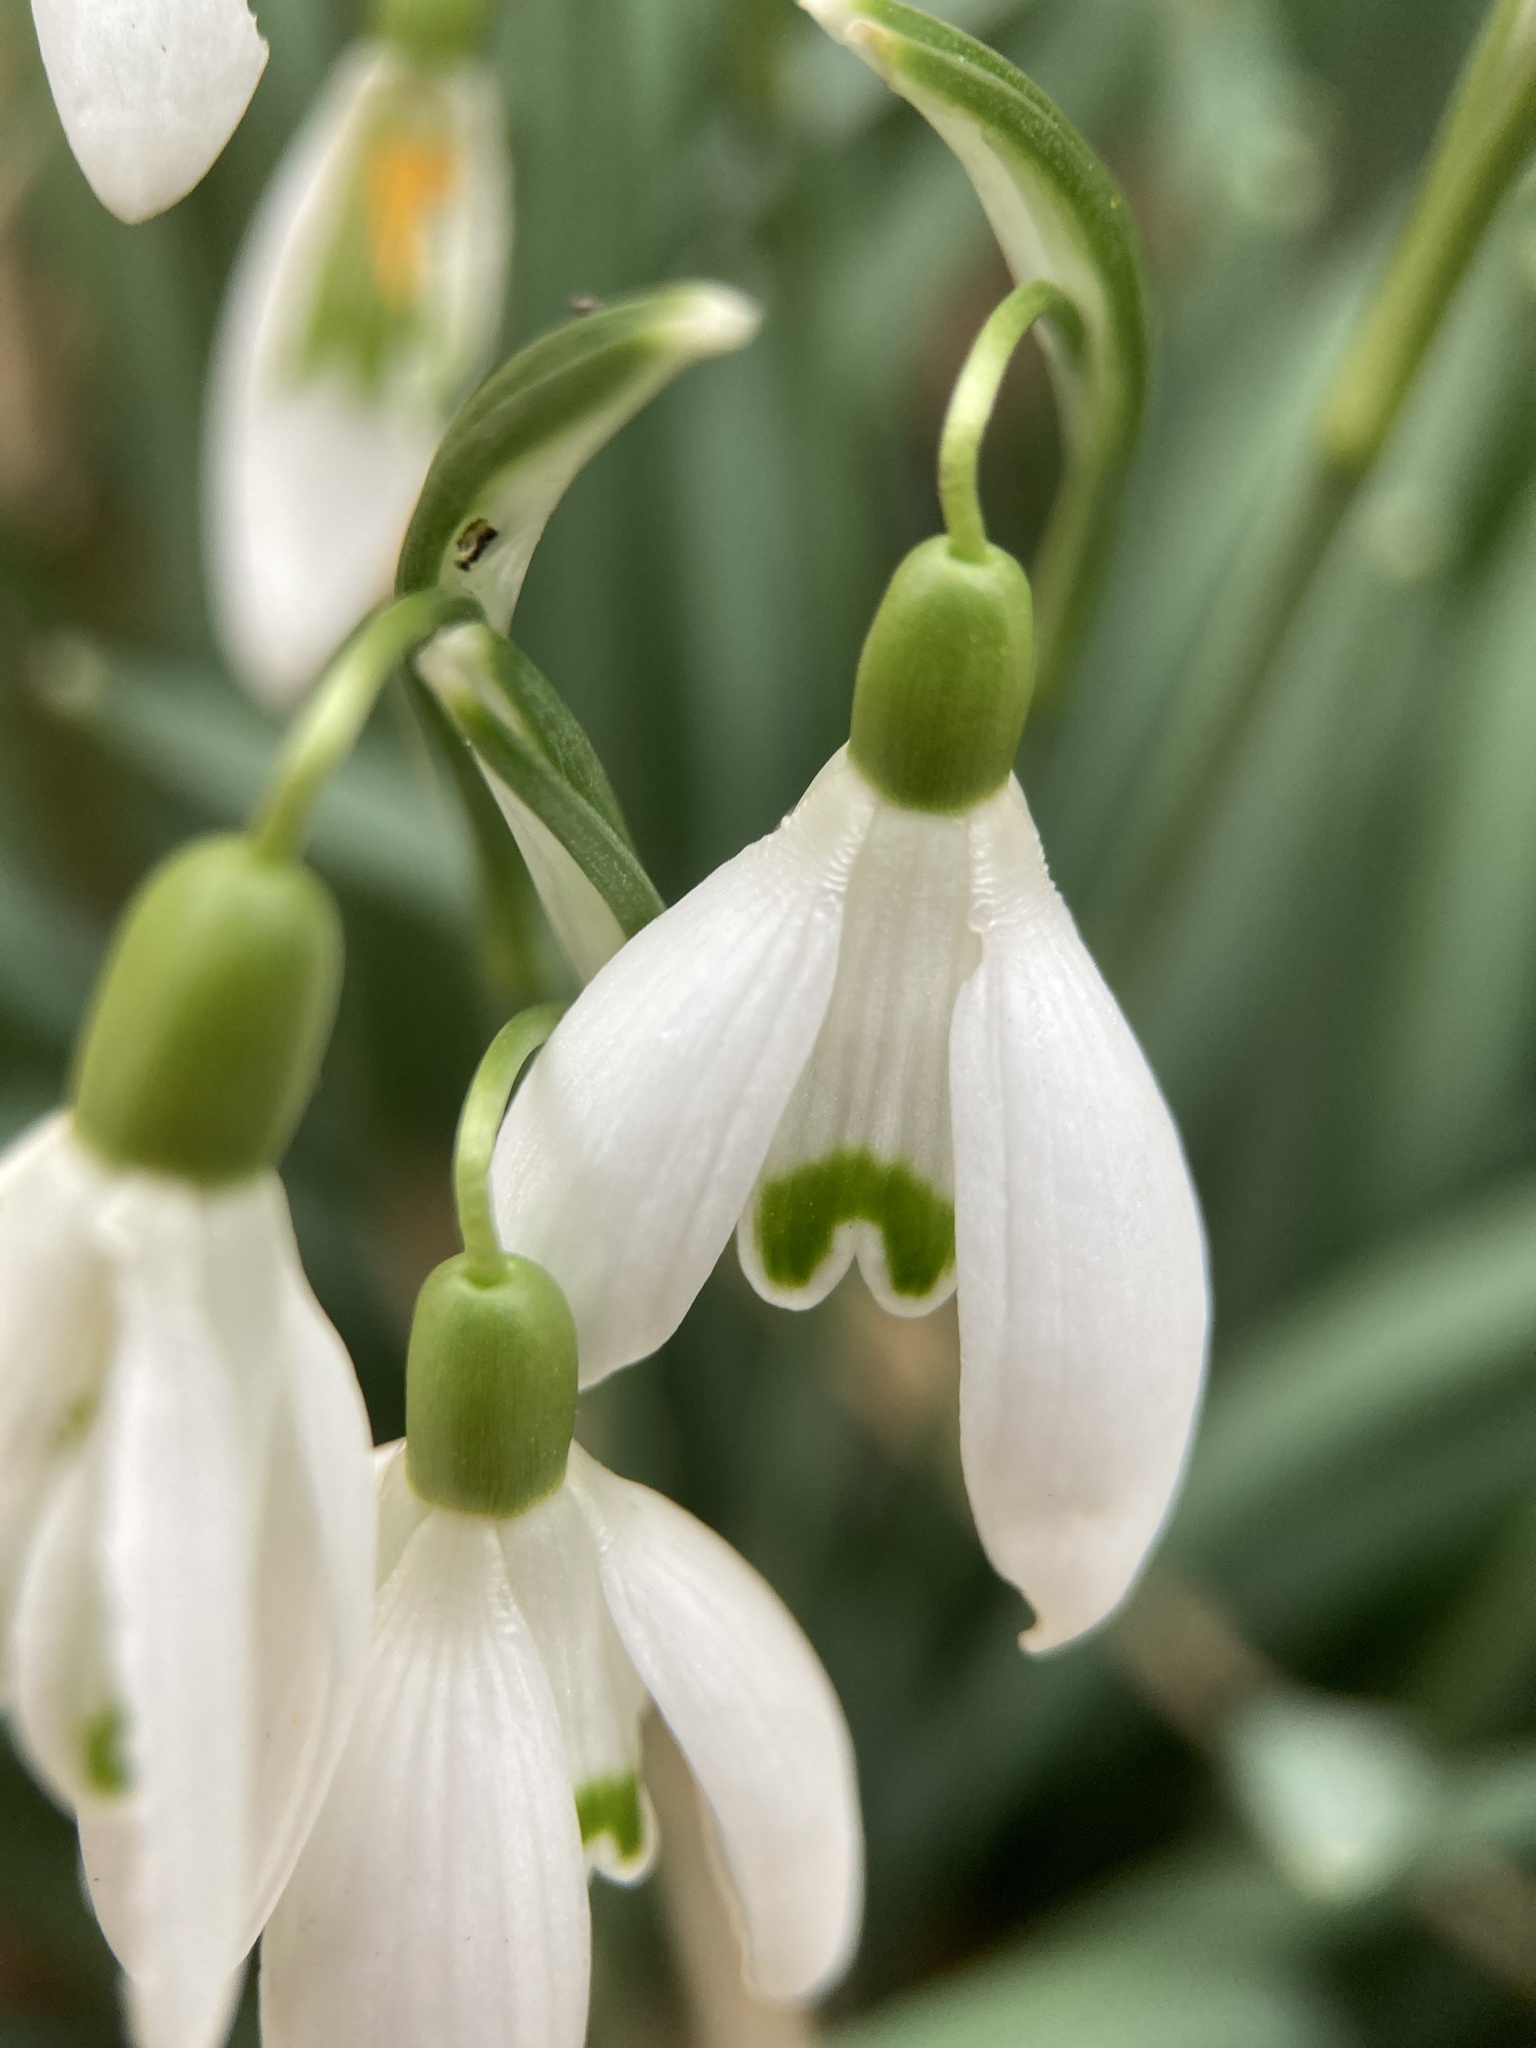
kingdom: Plantae
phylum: Tracheophyta
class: Liliopsida
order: Asparagales
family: Amaryllidaceae
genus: Galanthus
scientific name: Galanthus nivalis
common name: Snowdrop
